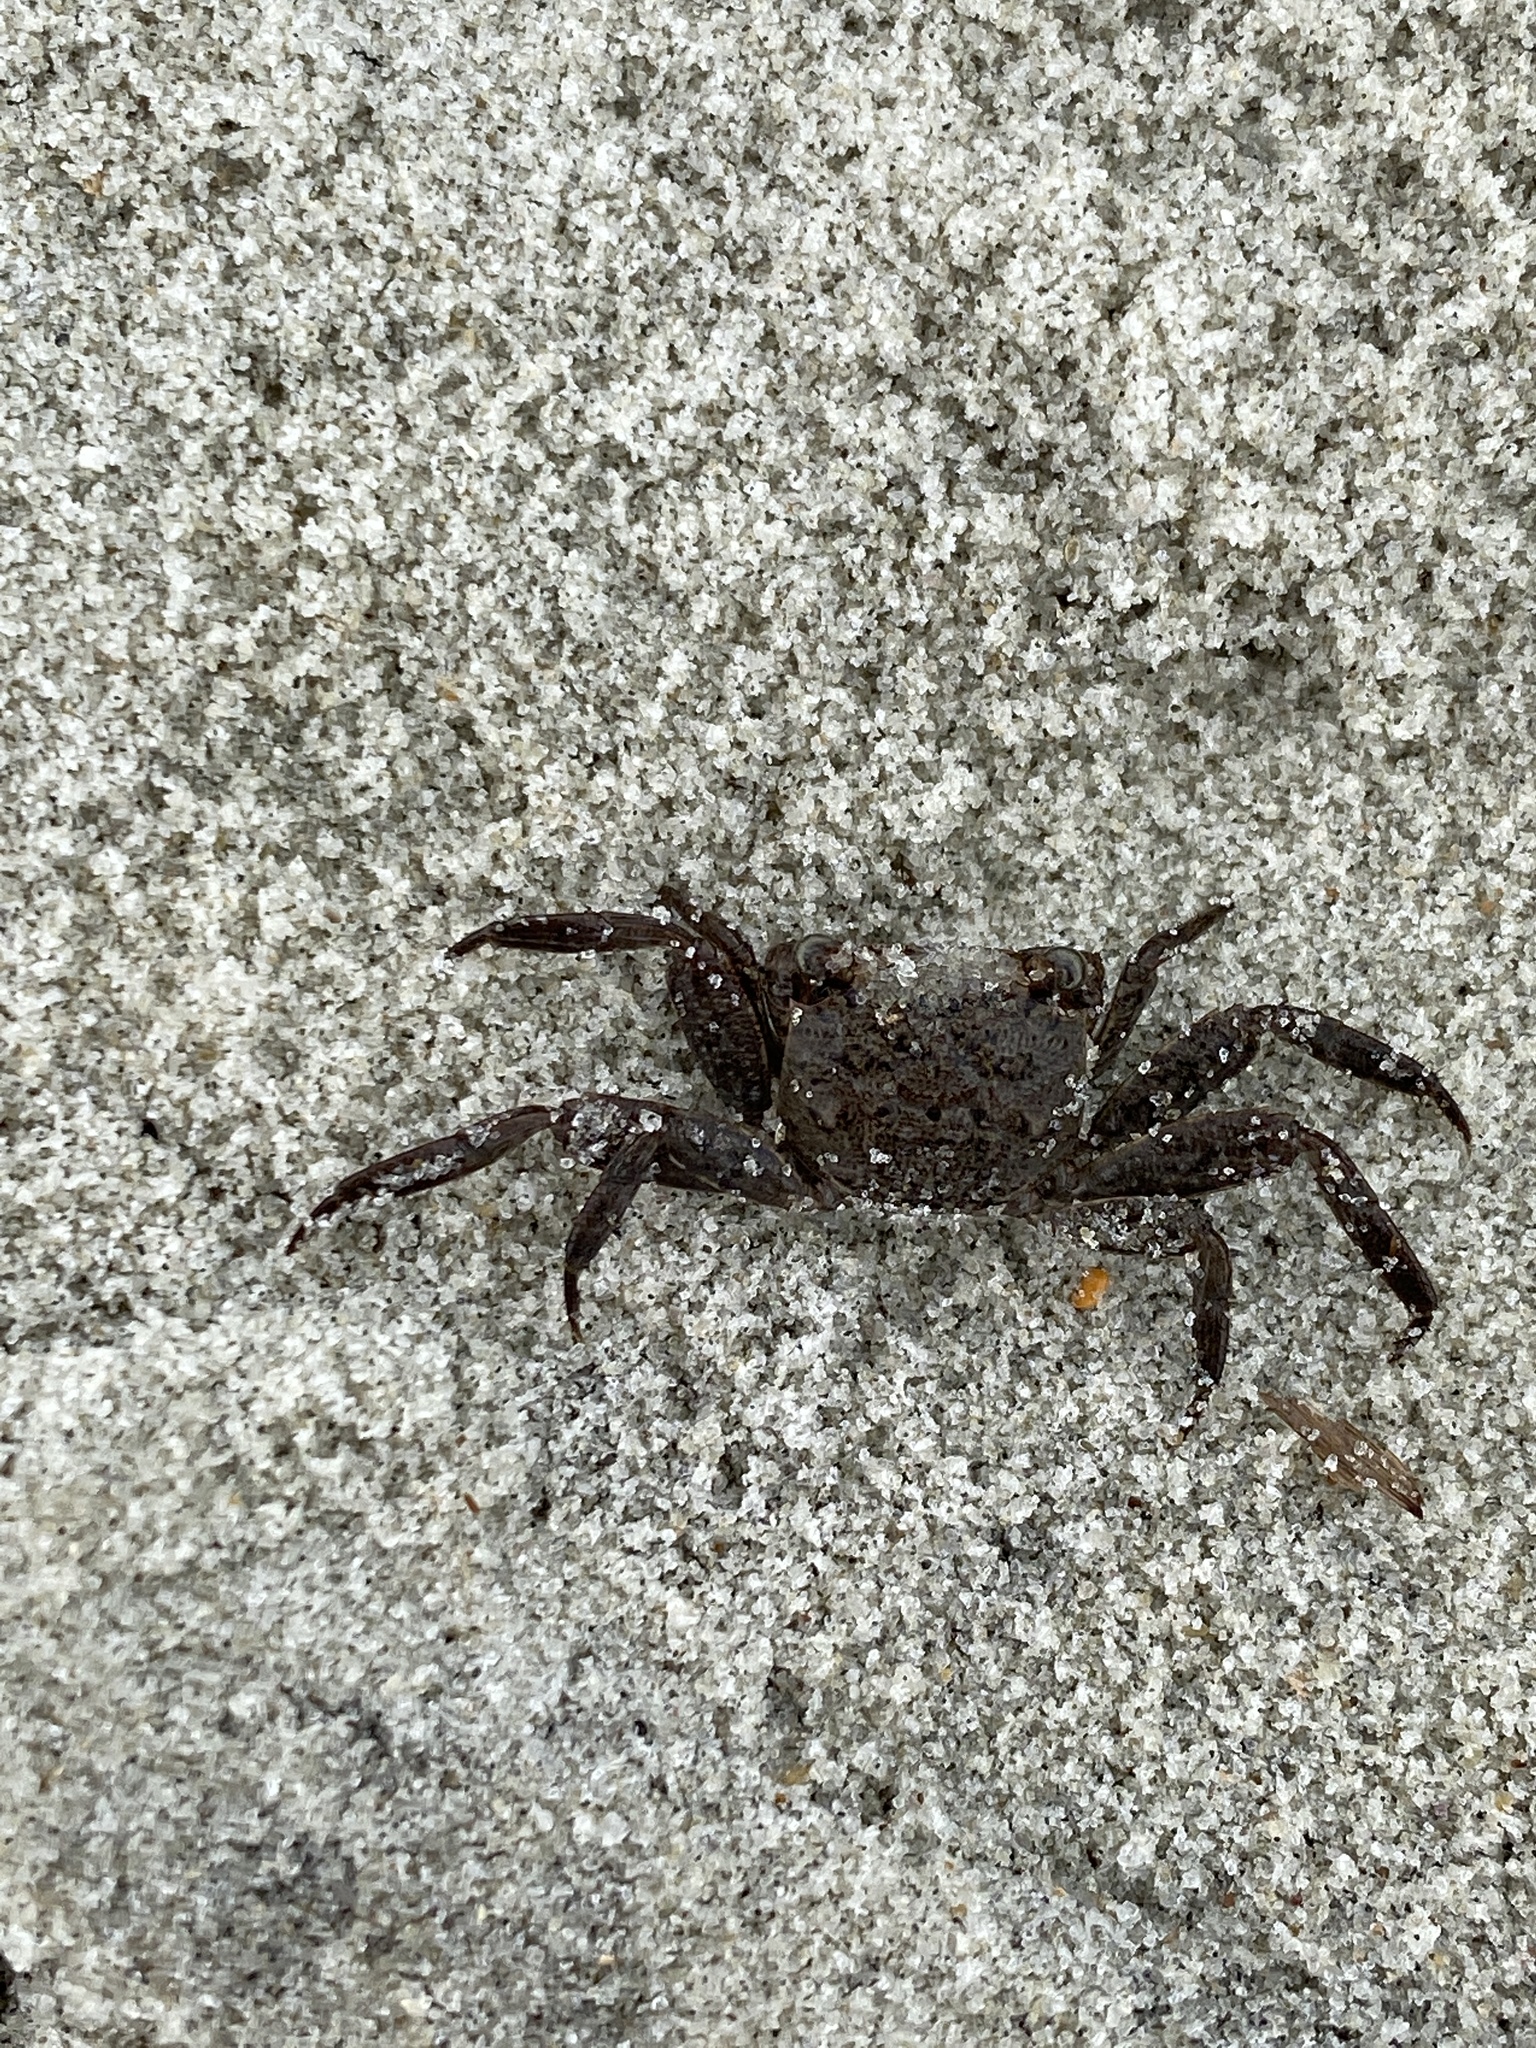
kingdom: Animalia
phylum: Arthropoda
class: Malacostraca
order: Decapoda
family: Sesarmidae
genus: Armases
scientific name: Armases cinereum
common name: Squareback marsh crab
